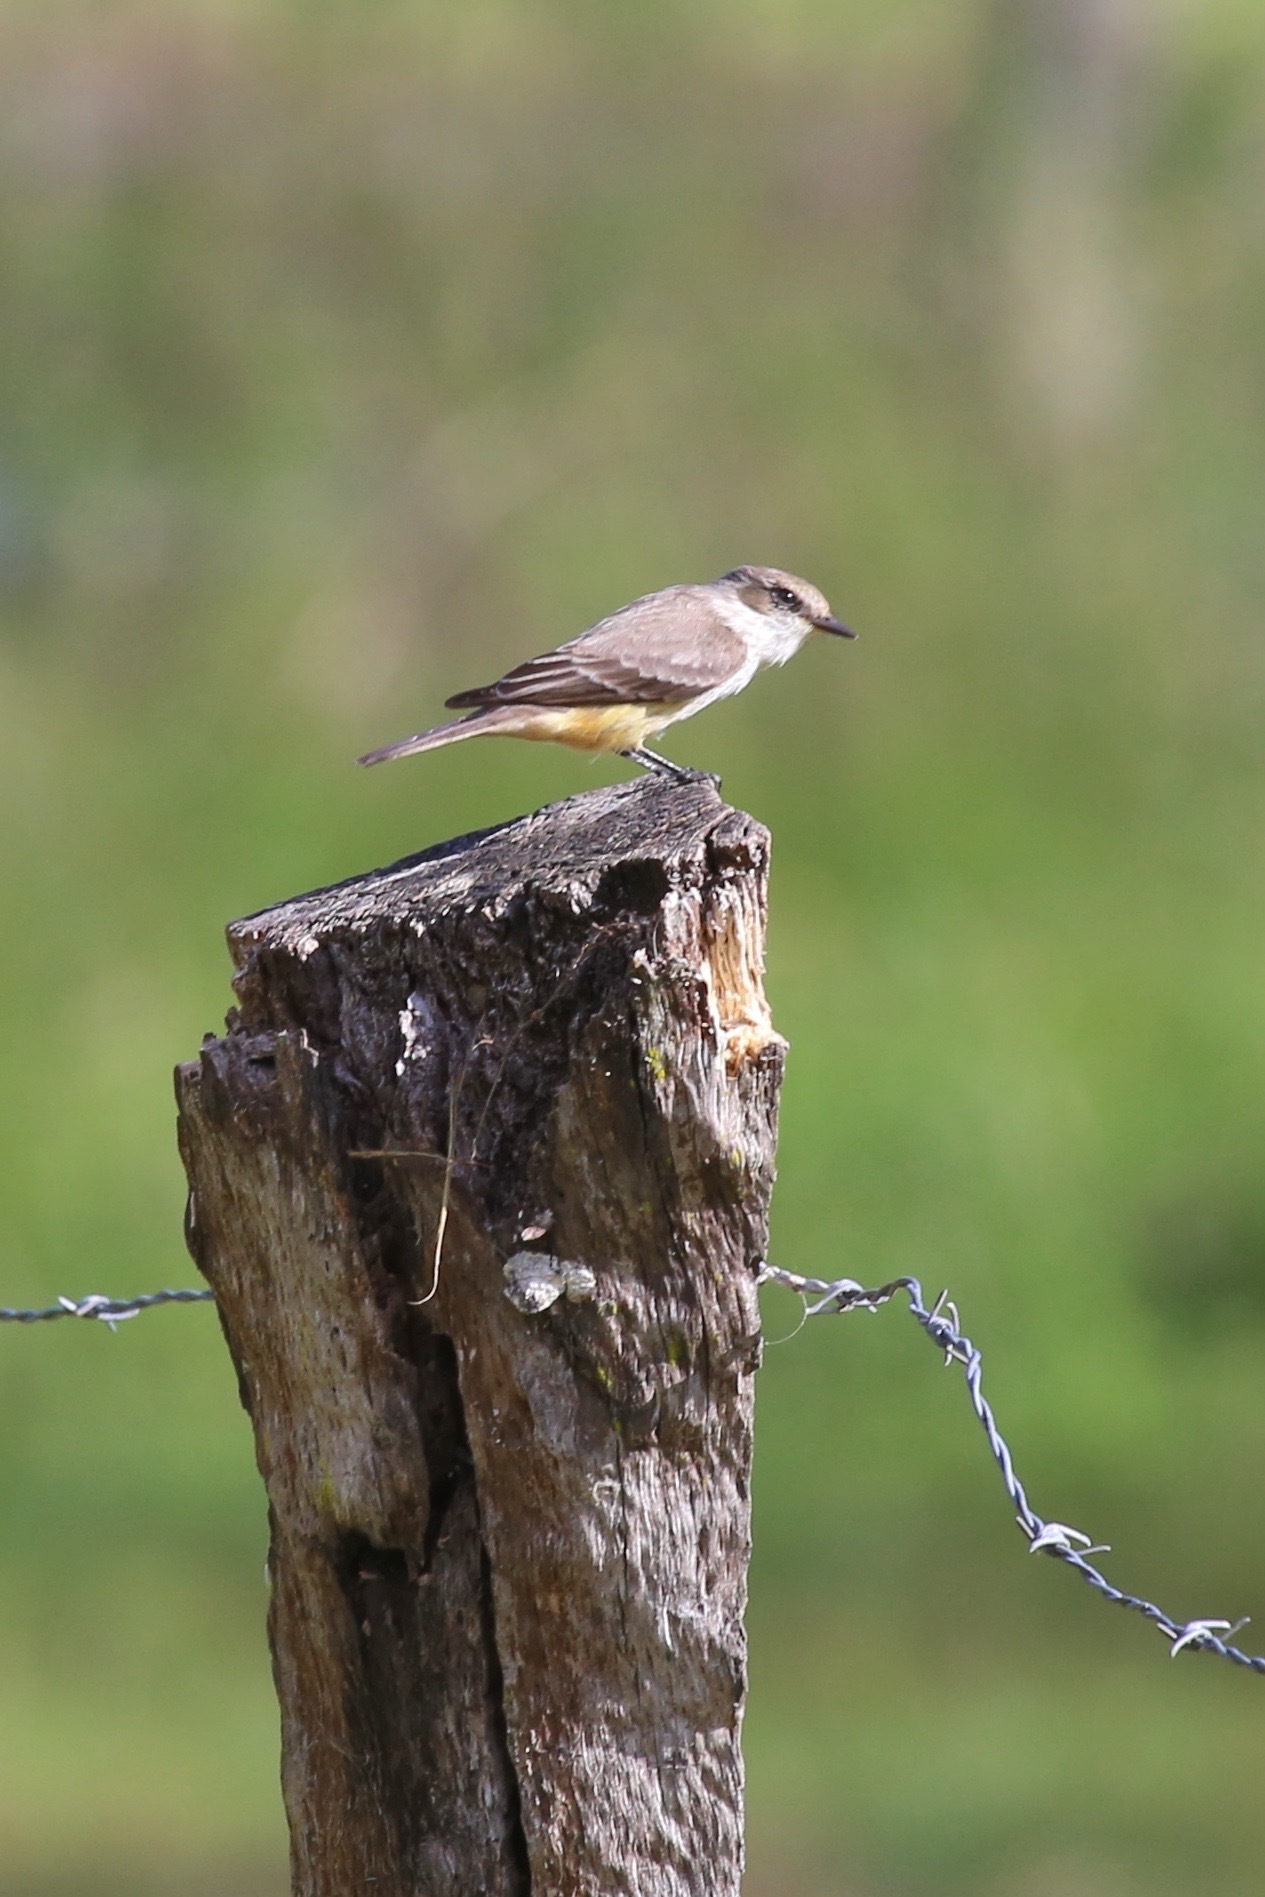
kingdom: Animalia
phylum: Chordata
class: Aves
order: Passeriformes
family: Tyrannidae
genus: Pyrocephalus
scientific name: Pyrocephalus rubinus
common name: Vermilion flycatcher
